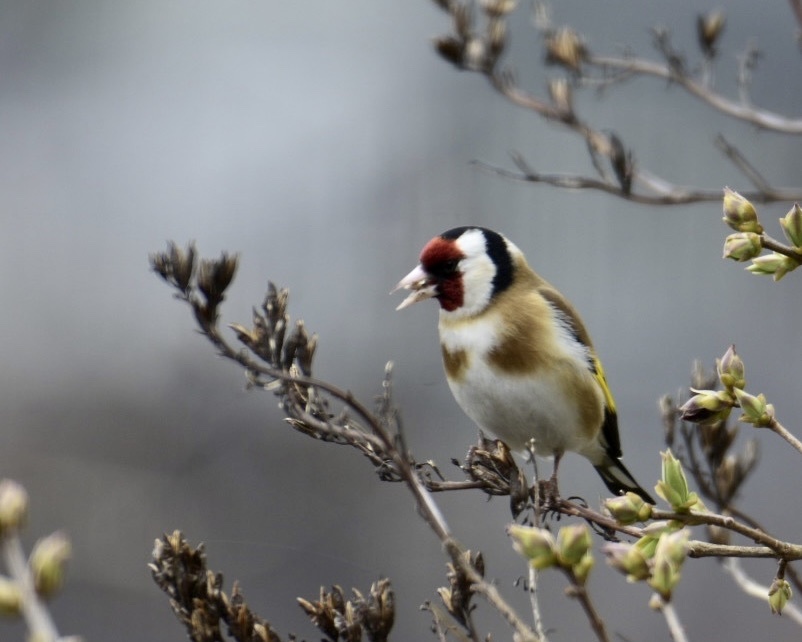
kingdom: Animalia
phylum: Chordata
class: Aves
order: Passeriformes
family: Fringillidae
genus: Carduelis
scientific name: Carduelis carduelis
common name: European goldfinch
